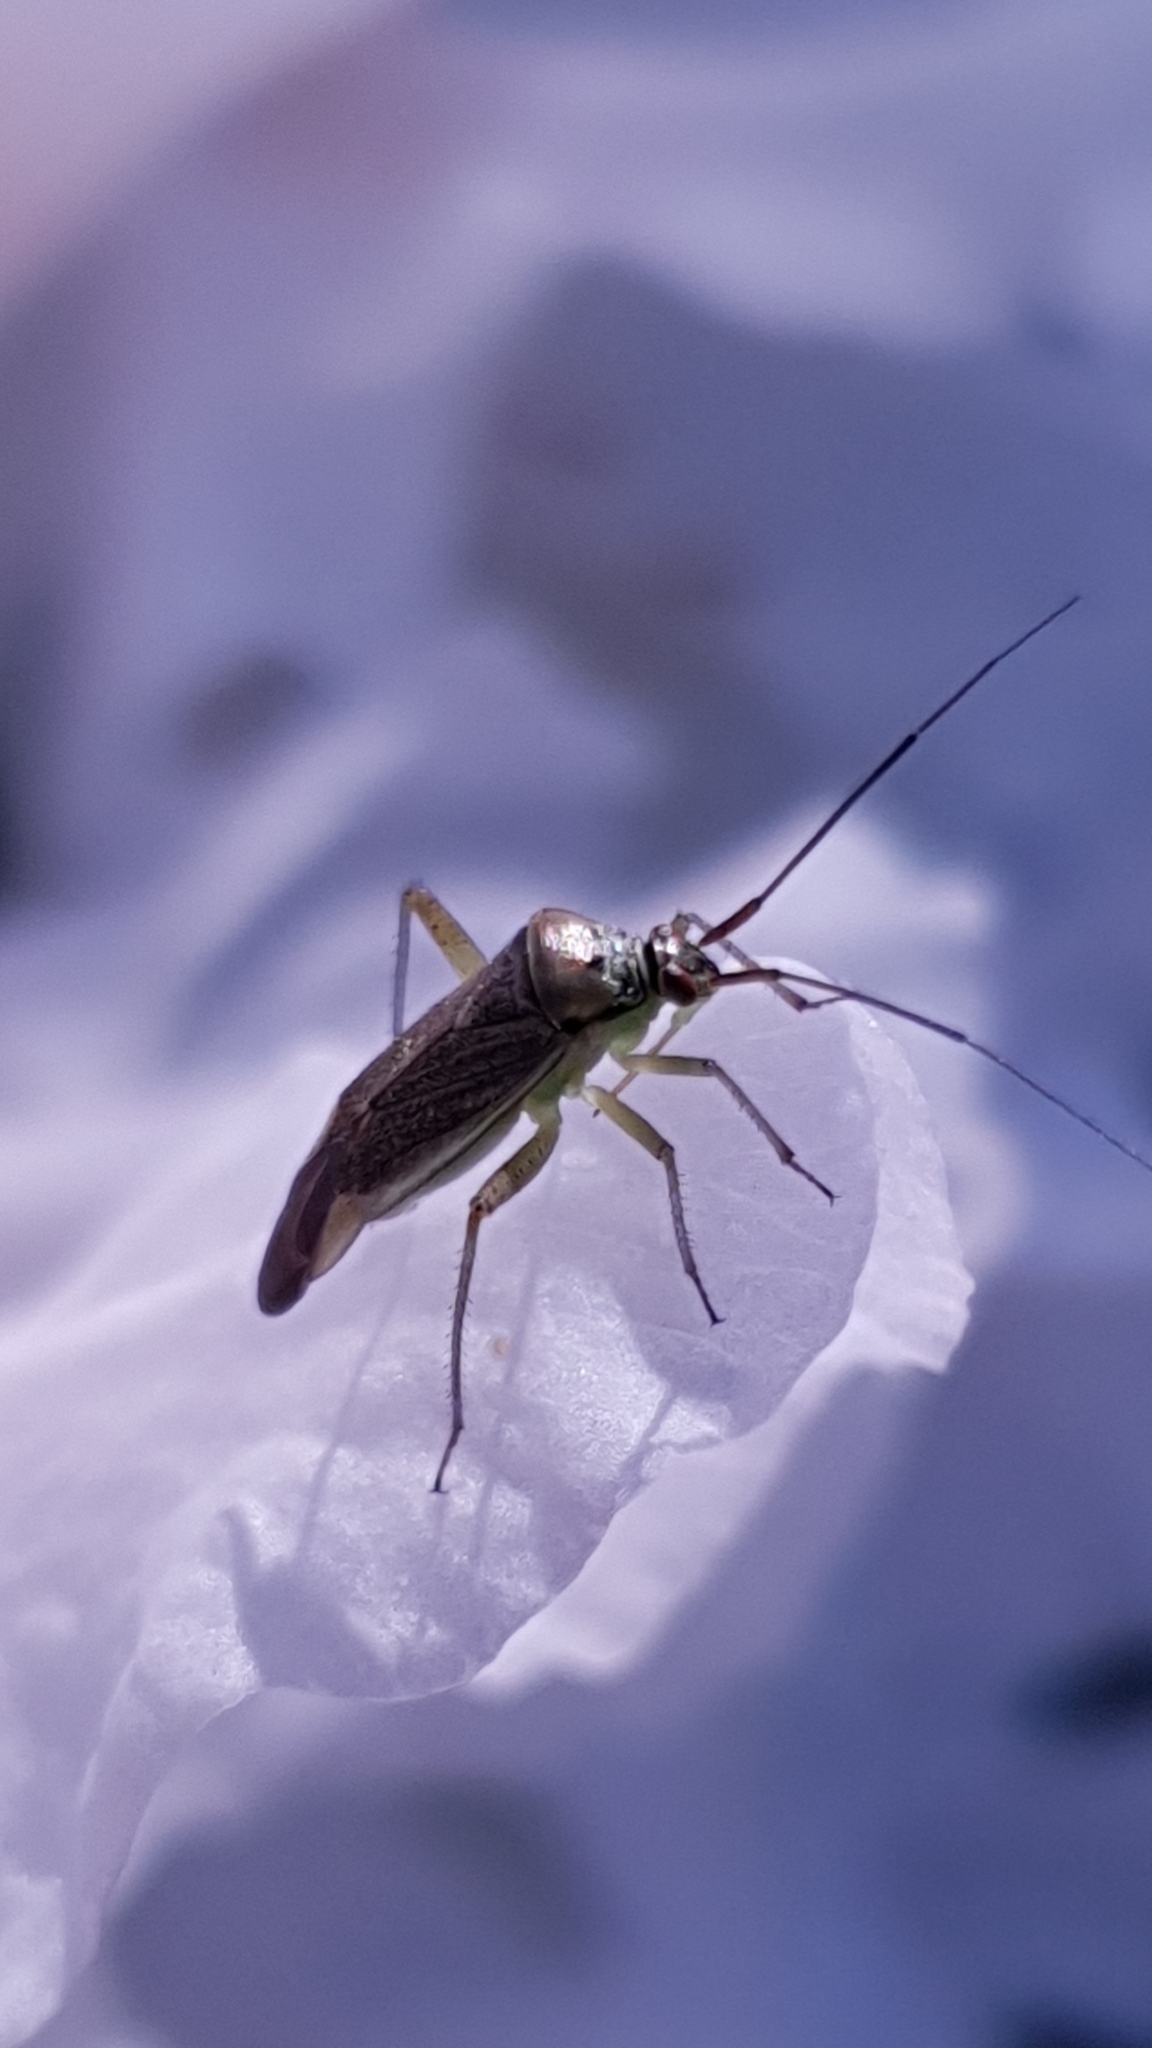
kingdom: Animalia
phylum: Arthropoda
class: Insecta
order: Hemiptera
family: Miridae
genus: Closterotomus
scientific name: Closterotomus trivialis
